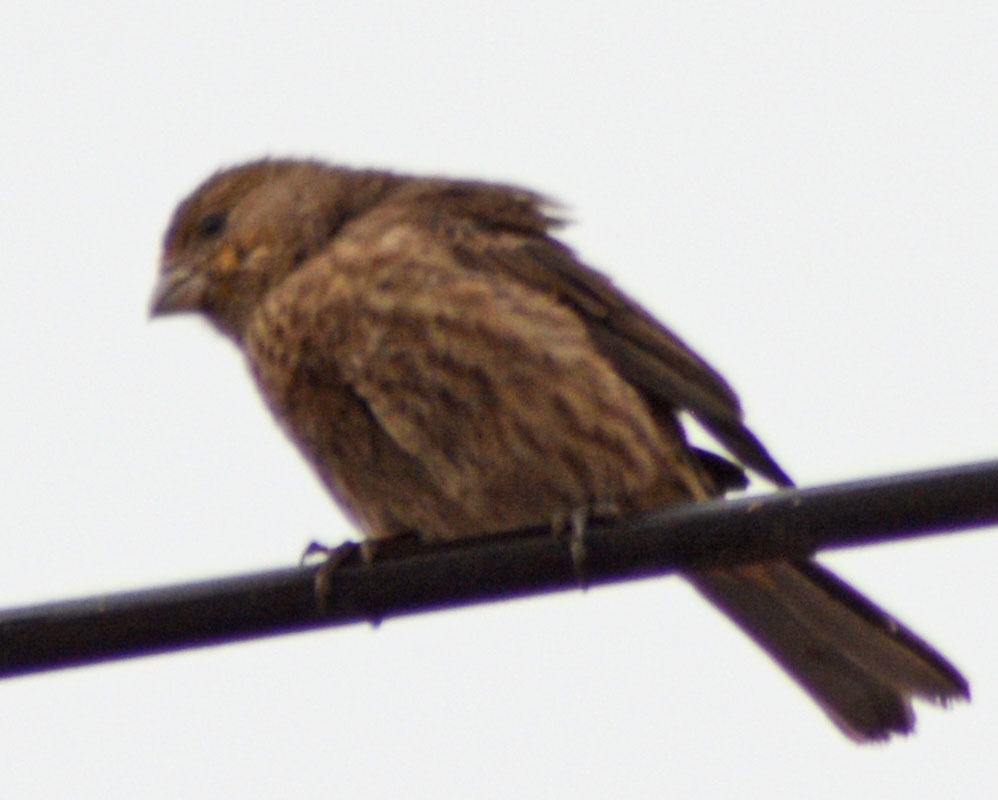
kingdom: Animalia
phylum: Chordata
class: Aves
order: Passeriformes
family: Fringillidae
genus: Haemorhous
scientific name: Haemorhous mexicanus
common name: House finch
